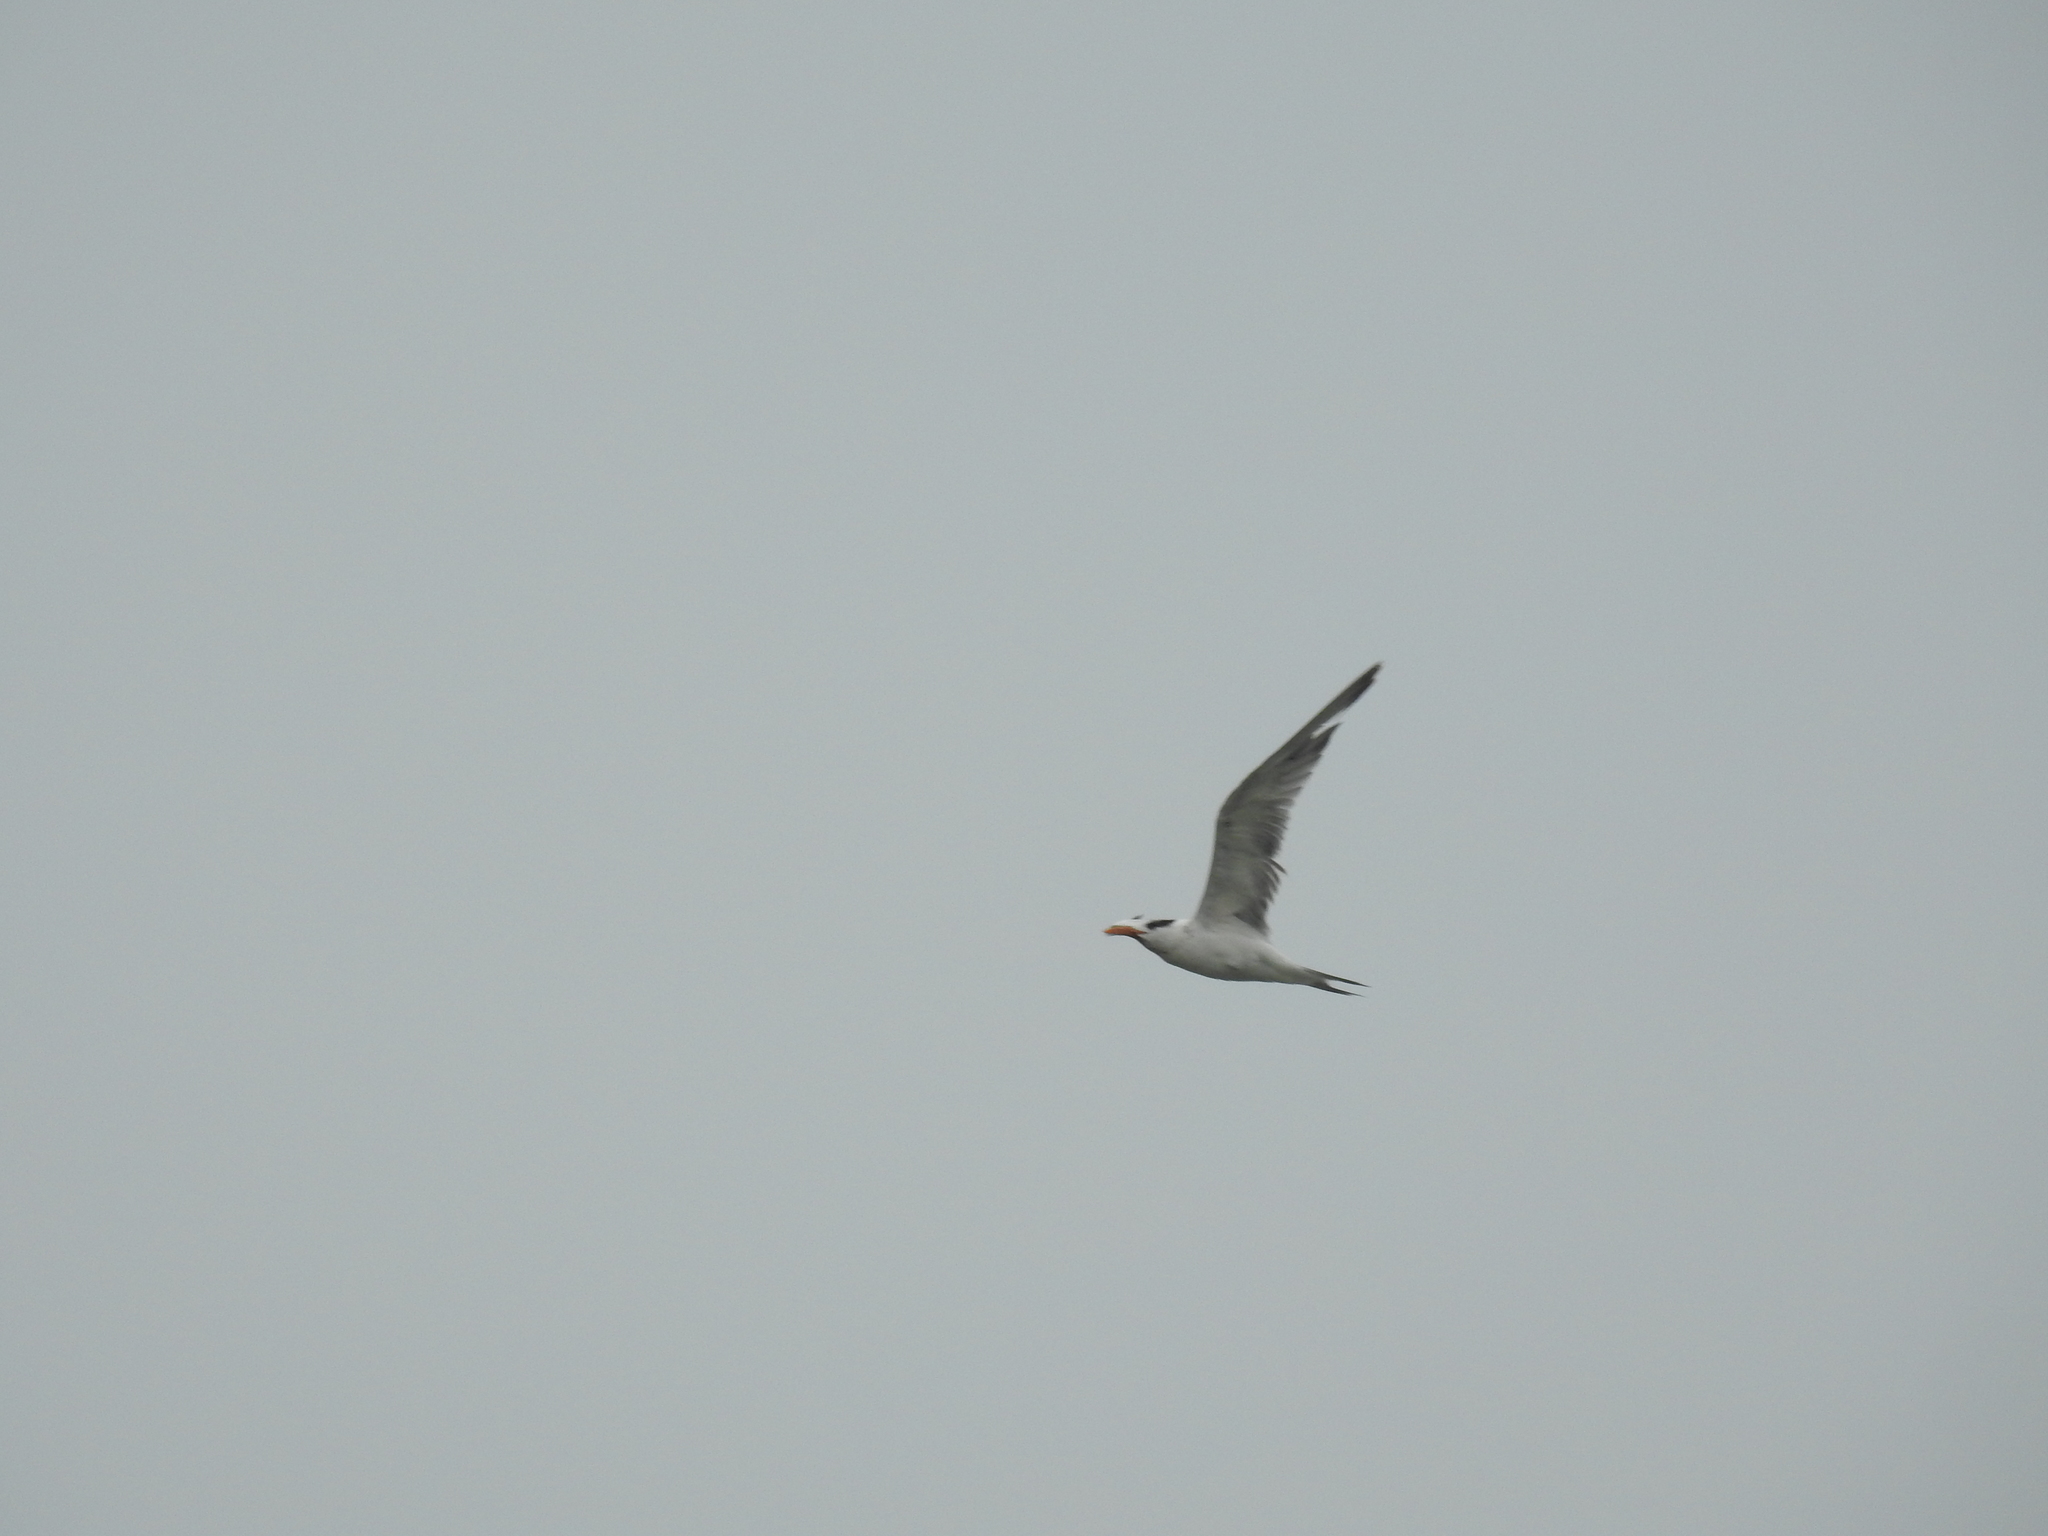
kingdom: Animalia
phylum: Chordata
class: Aves
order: Charadriiformes
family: Laridae
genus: Thalasseus
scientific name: Thalasseus elegans
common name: Elegant tern
